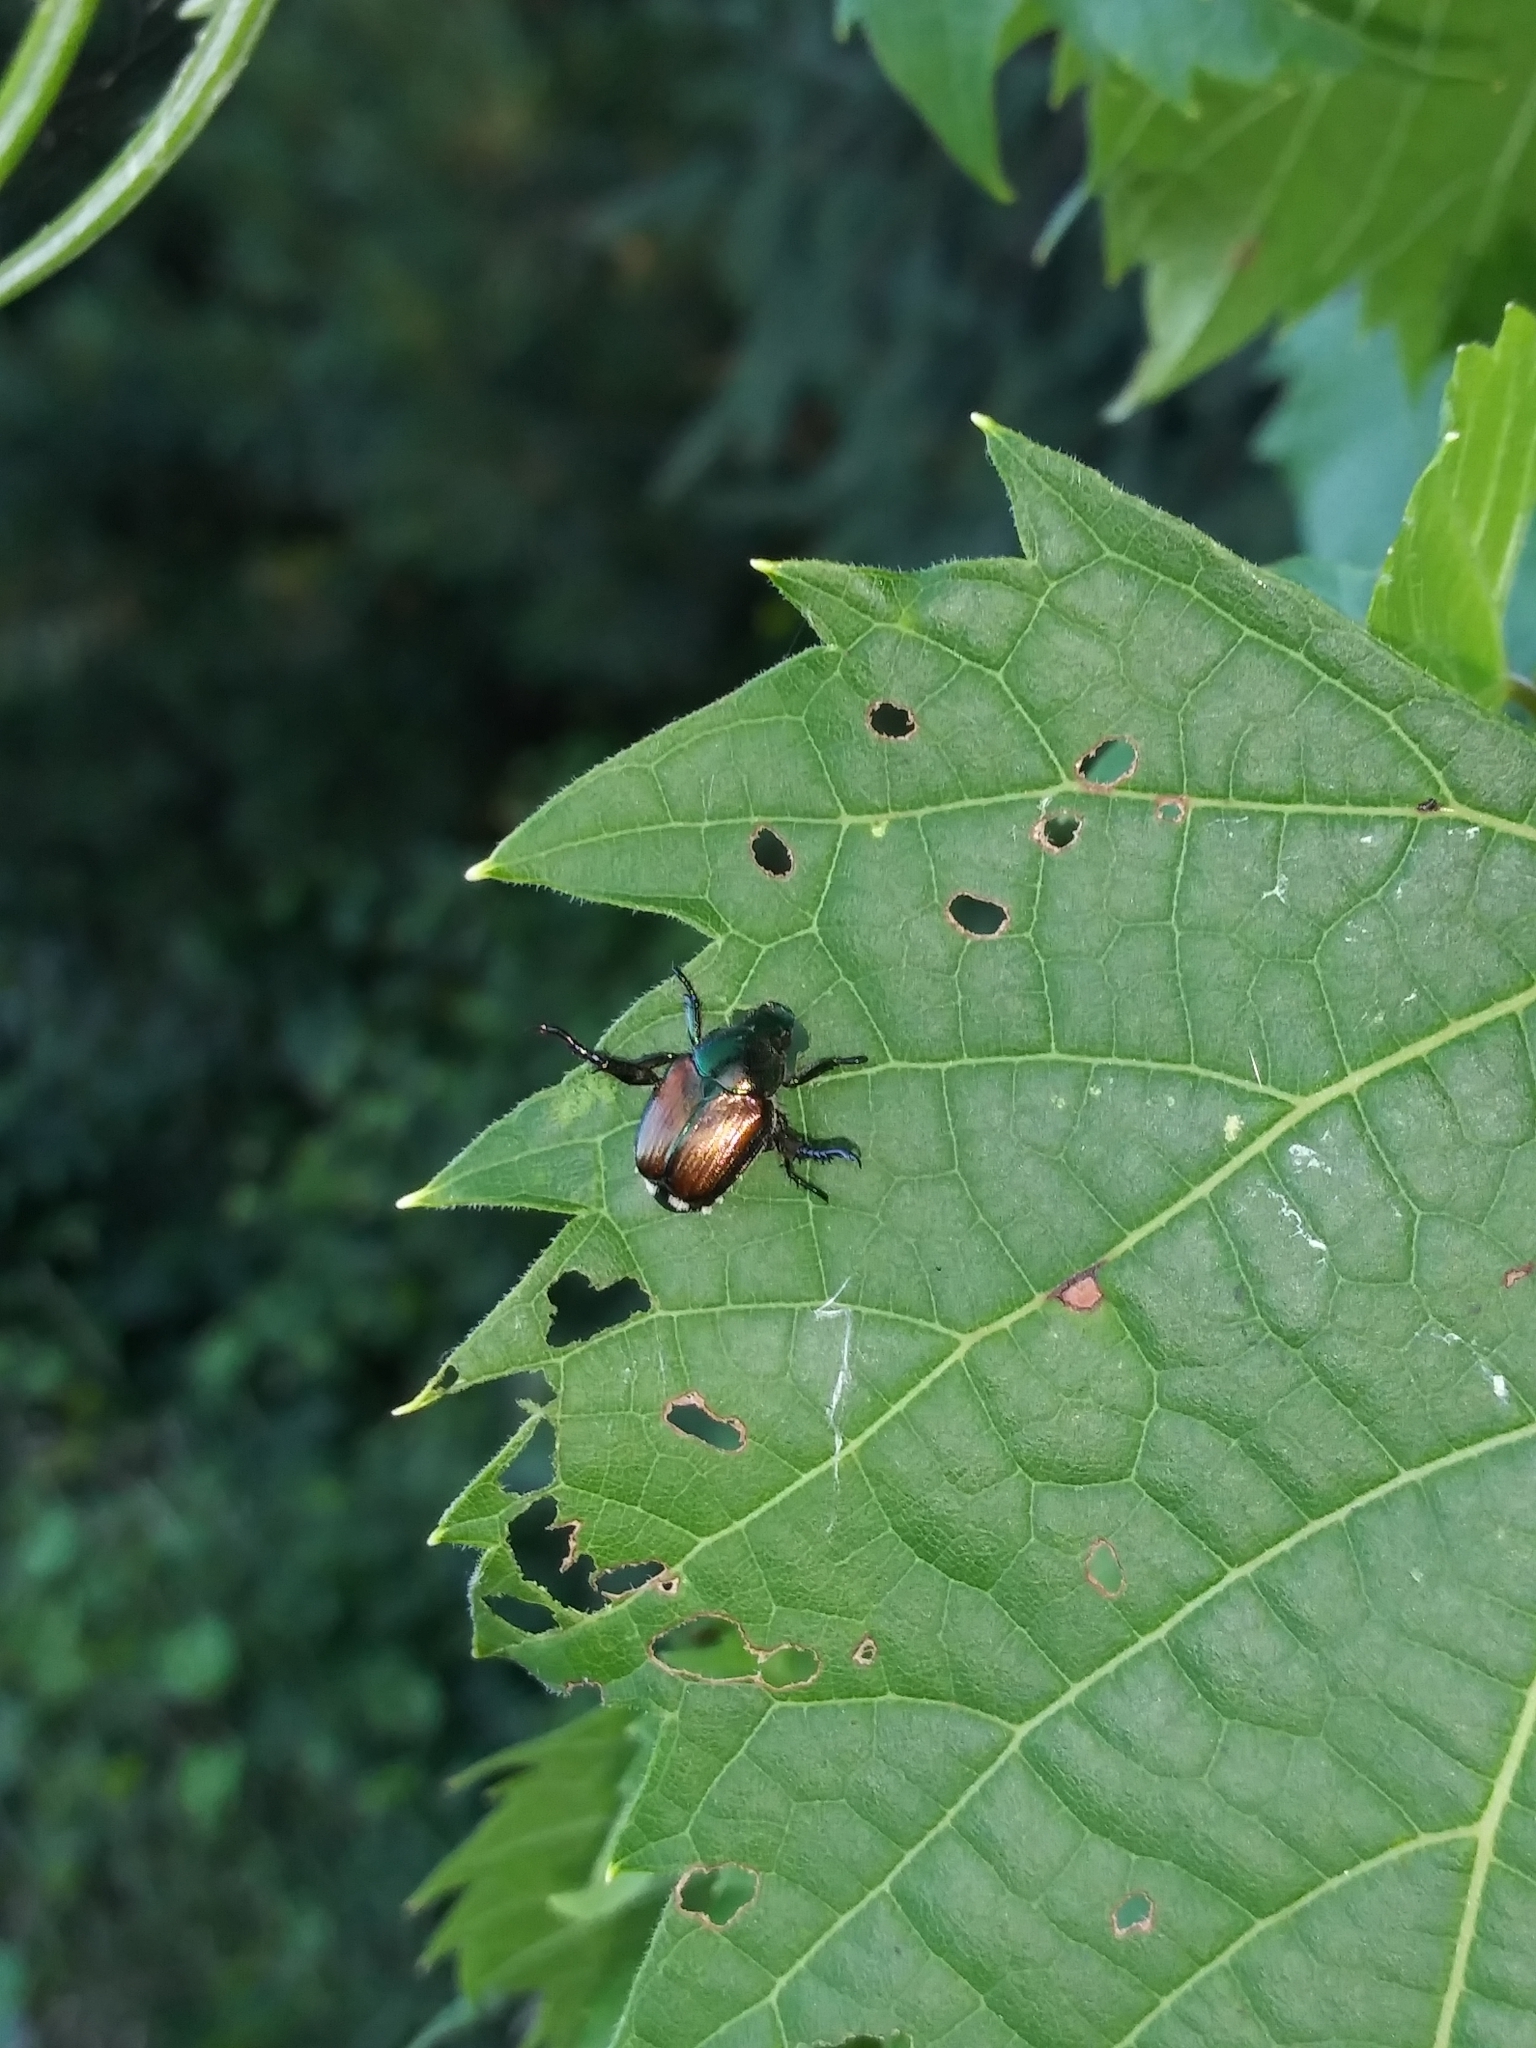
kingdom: Animalia
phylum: Arthropoda
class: Insecta
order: Coleoptera
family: Scarabaeidae
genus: Popillia
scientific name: Popillia japonica
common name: Japanese beetle
